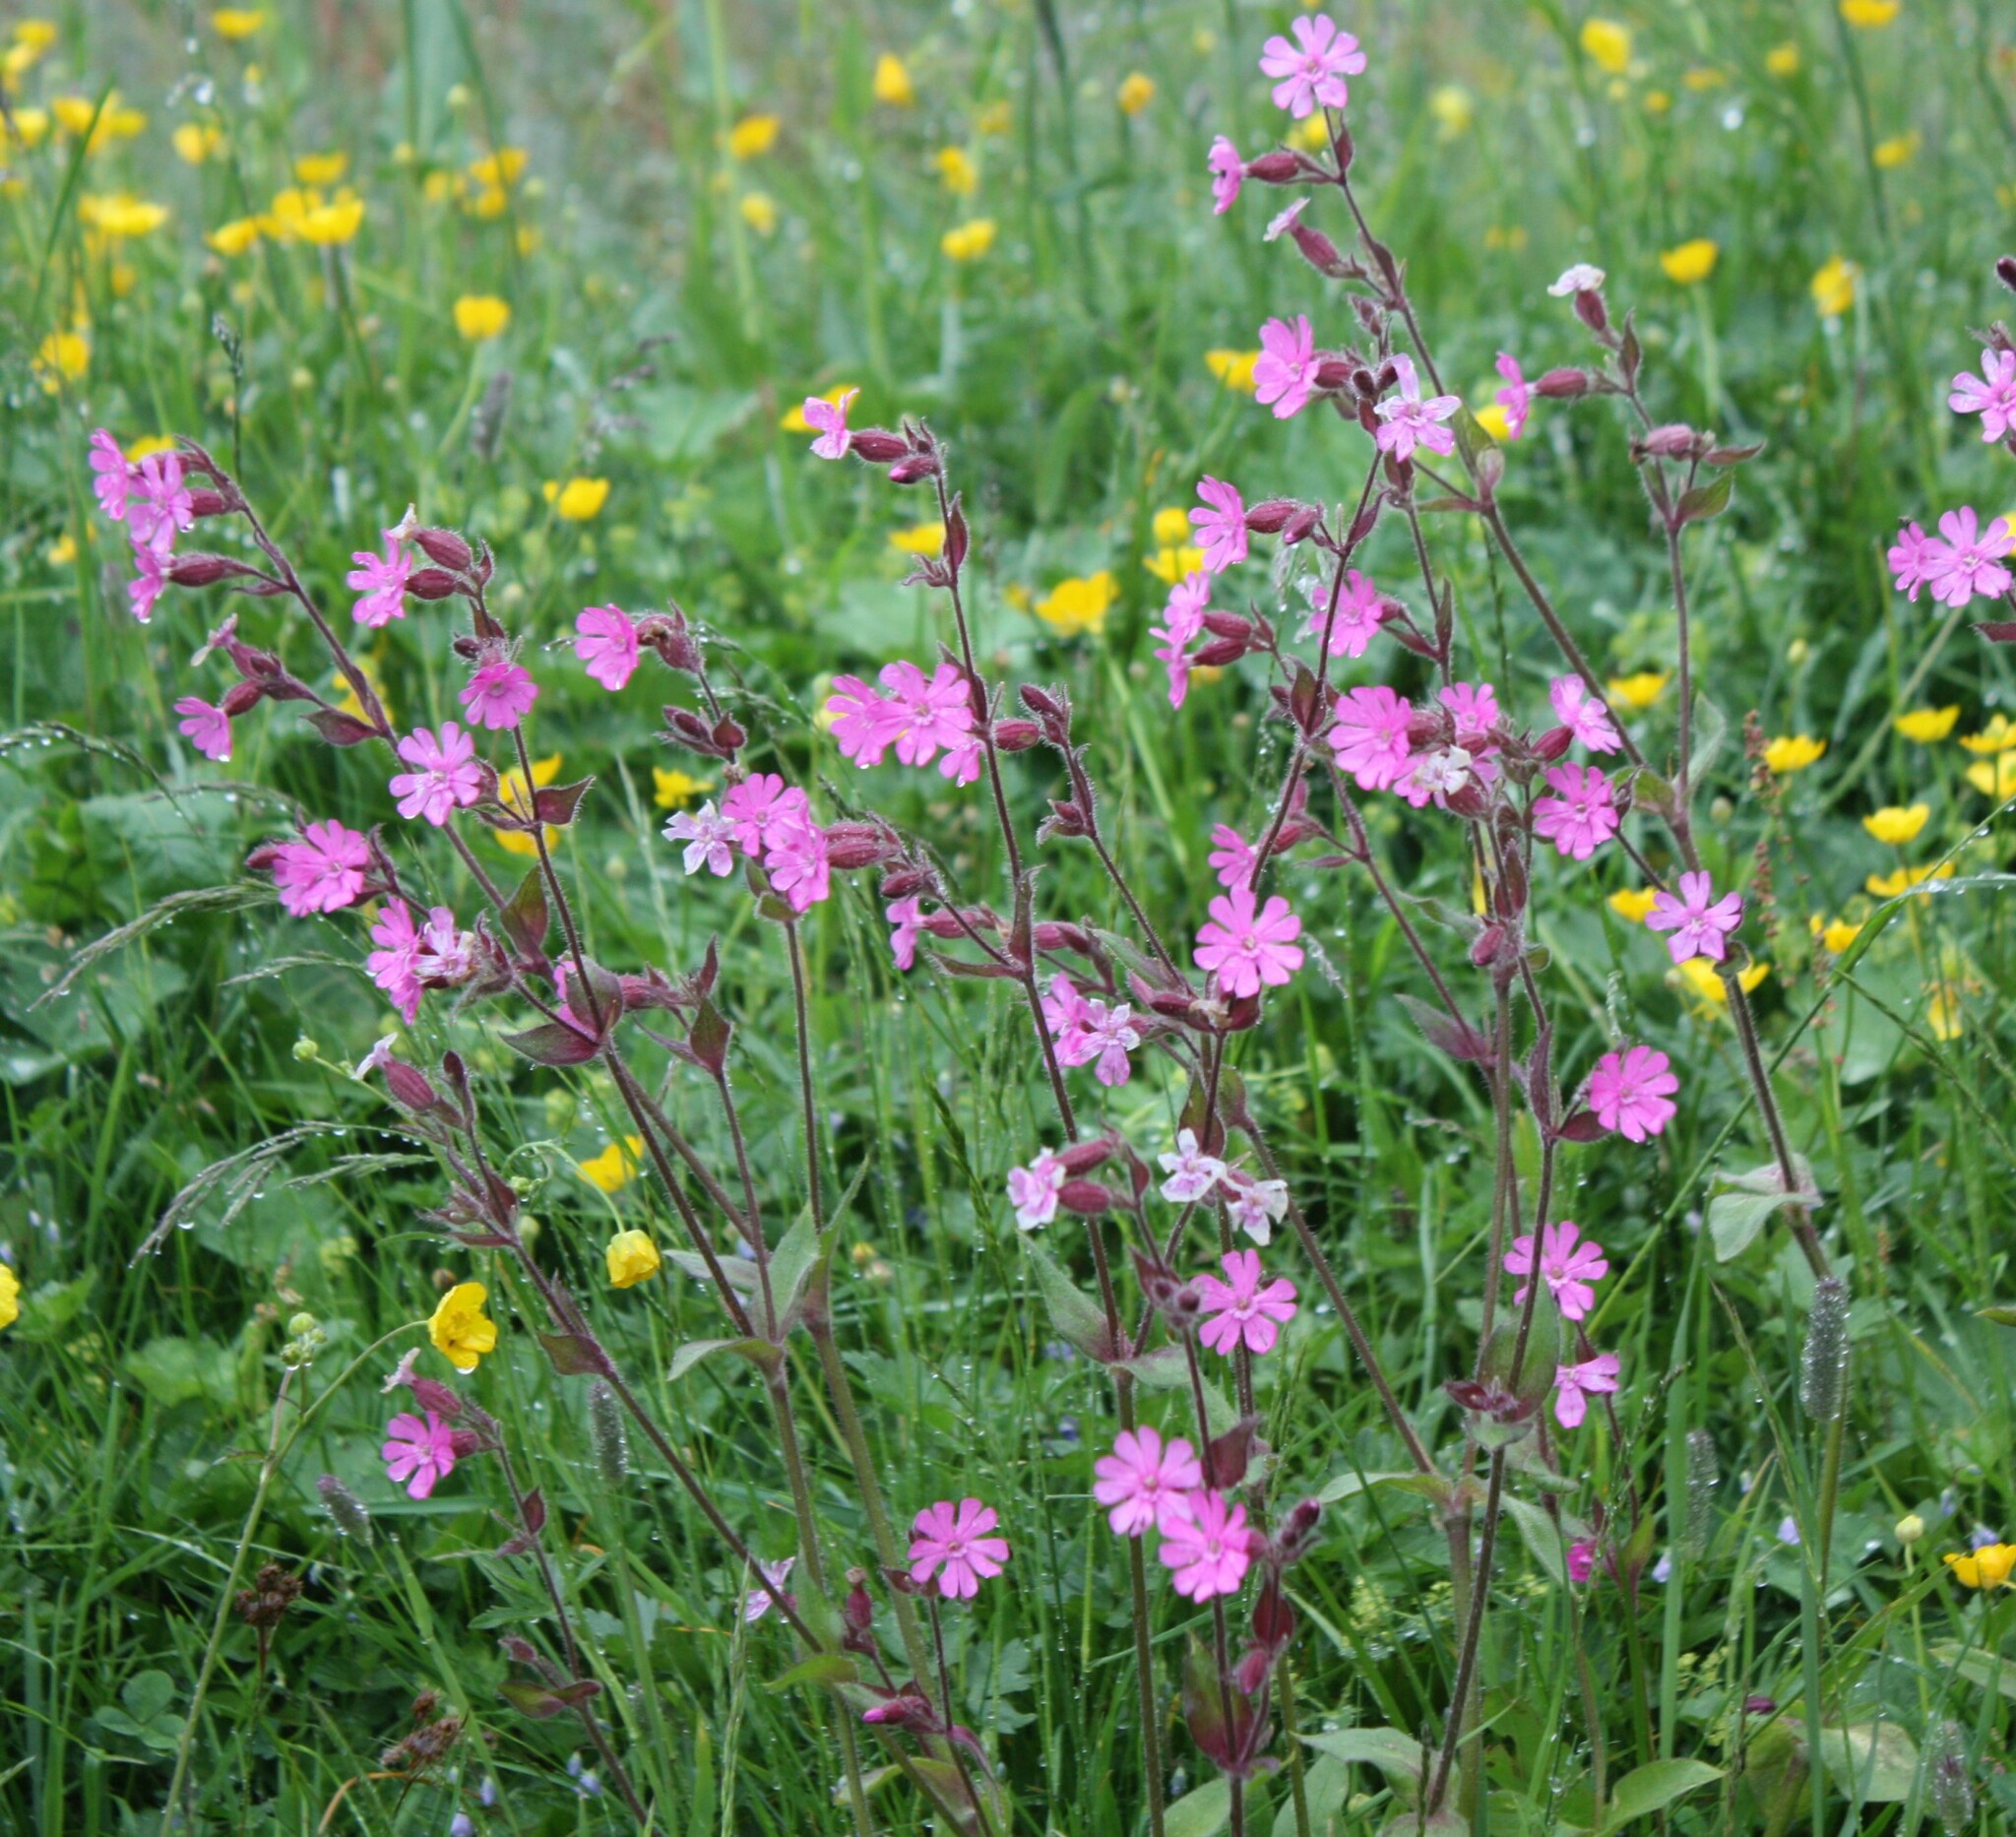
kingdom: Plantae
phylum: Tracheophyta
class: Magnoliopsida
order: Caryophyllales
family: Caryophyllaceae
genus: Silene
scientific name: Silene dioica
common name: Red campion
